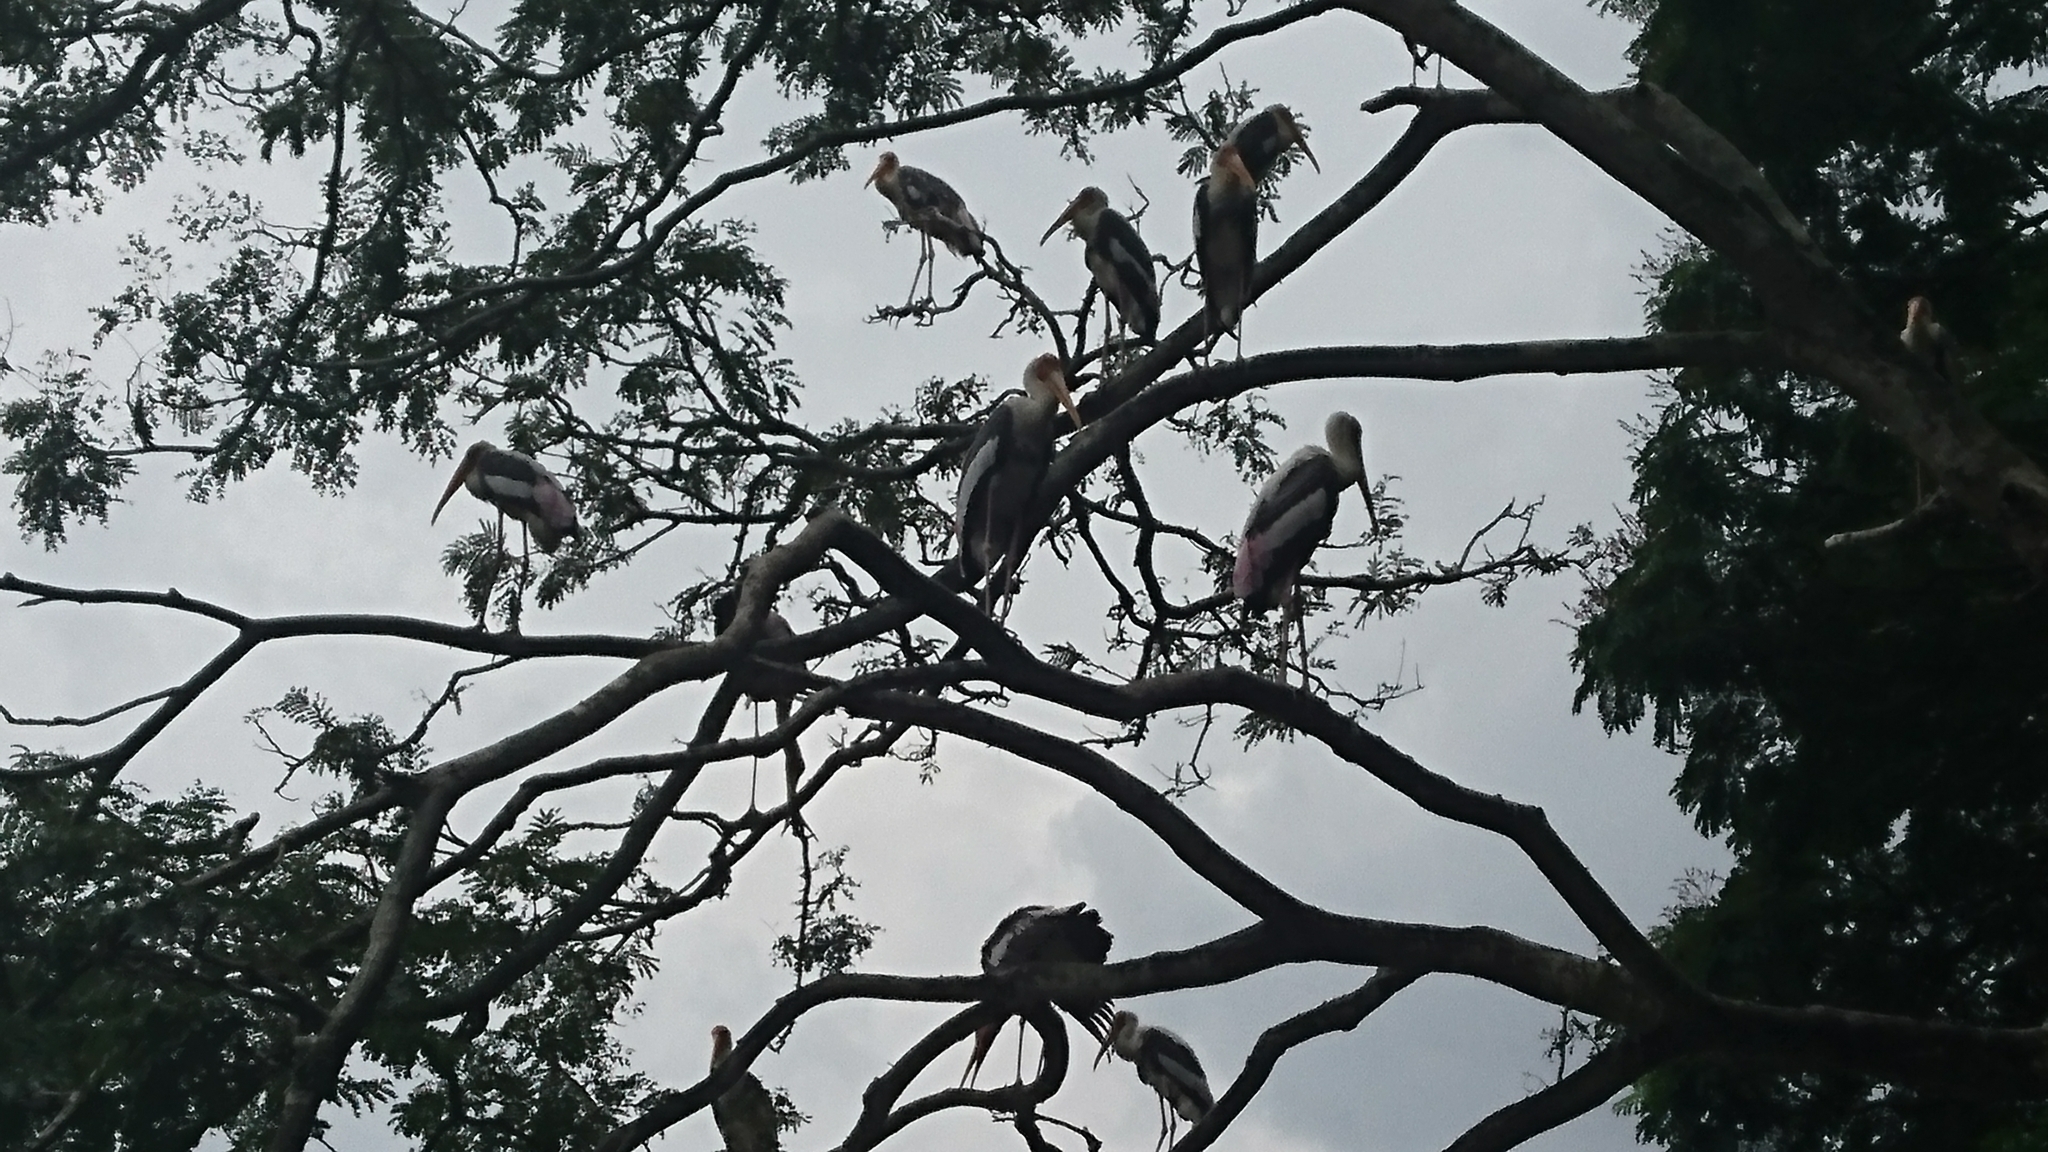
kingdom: Animalia
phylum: Chordata
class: Aves
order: Ciconiiformes
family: Ciconiidae
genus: Mycteria
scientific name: Mycteria leucocephala
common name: Painted stork
